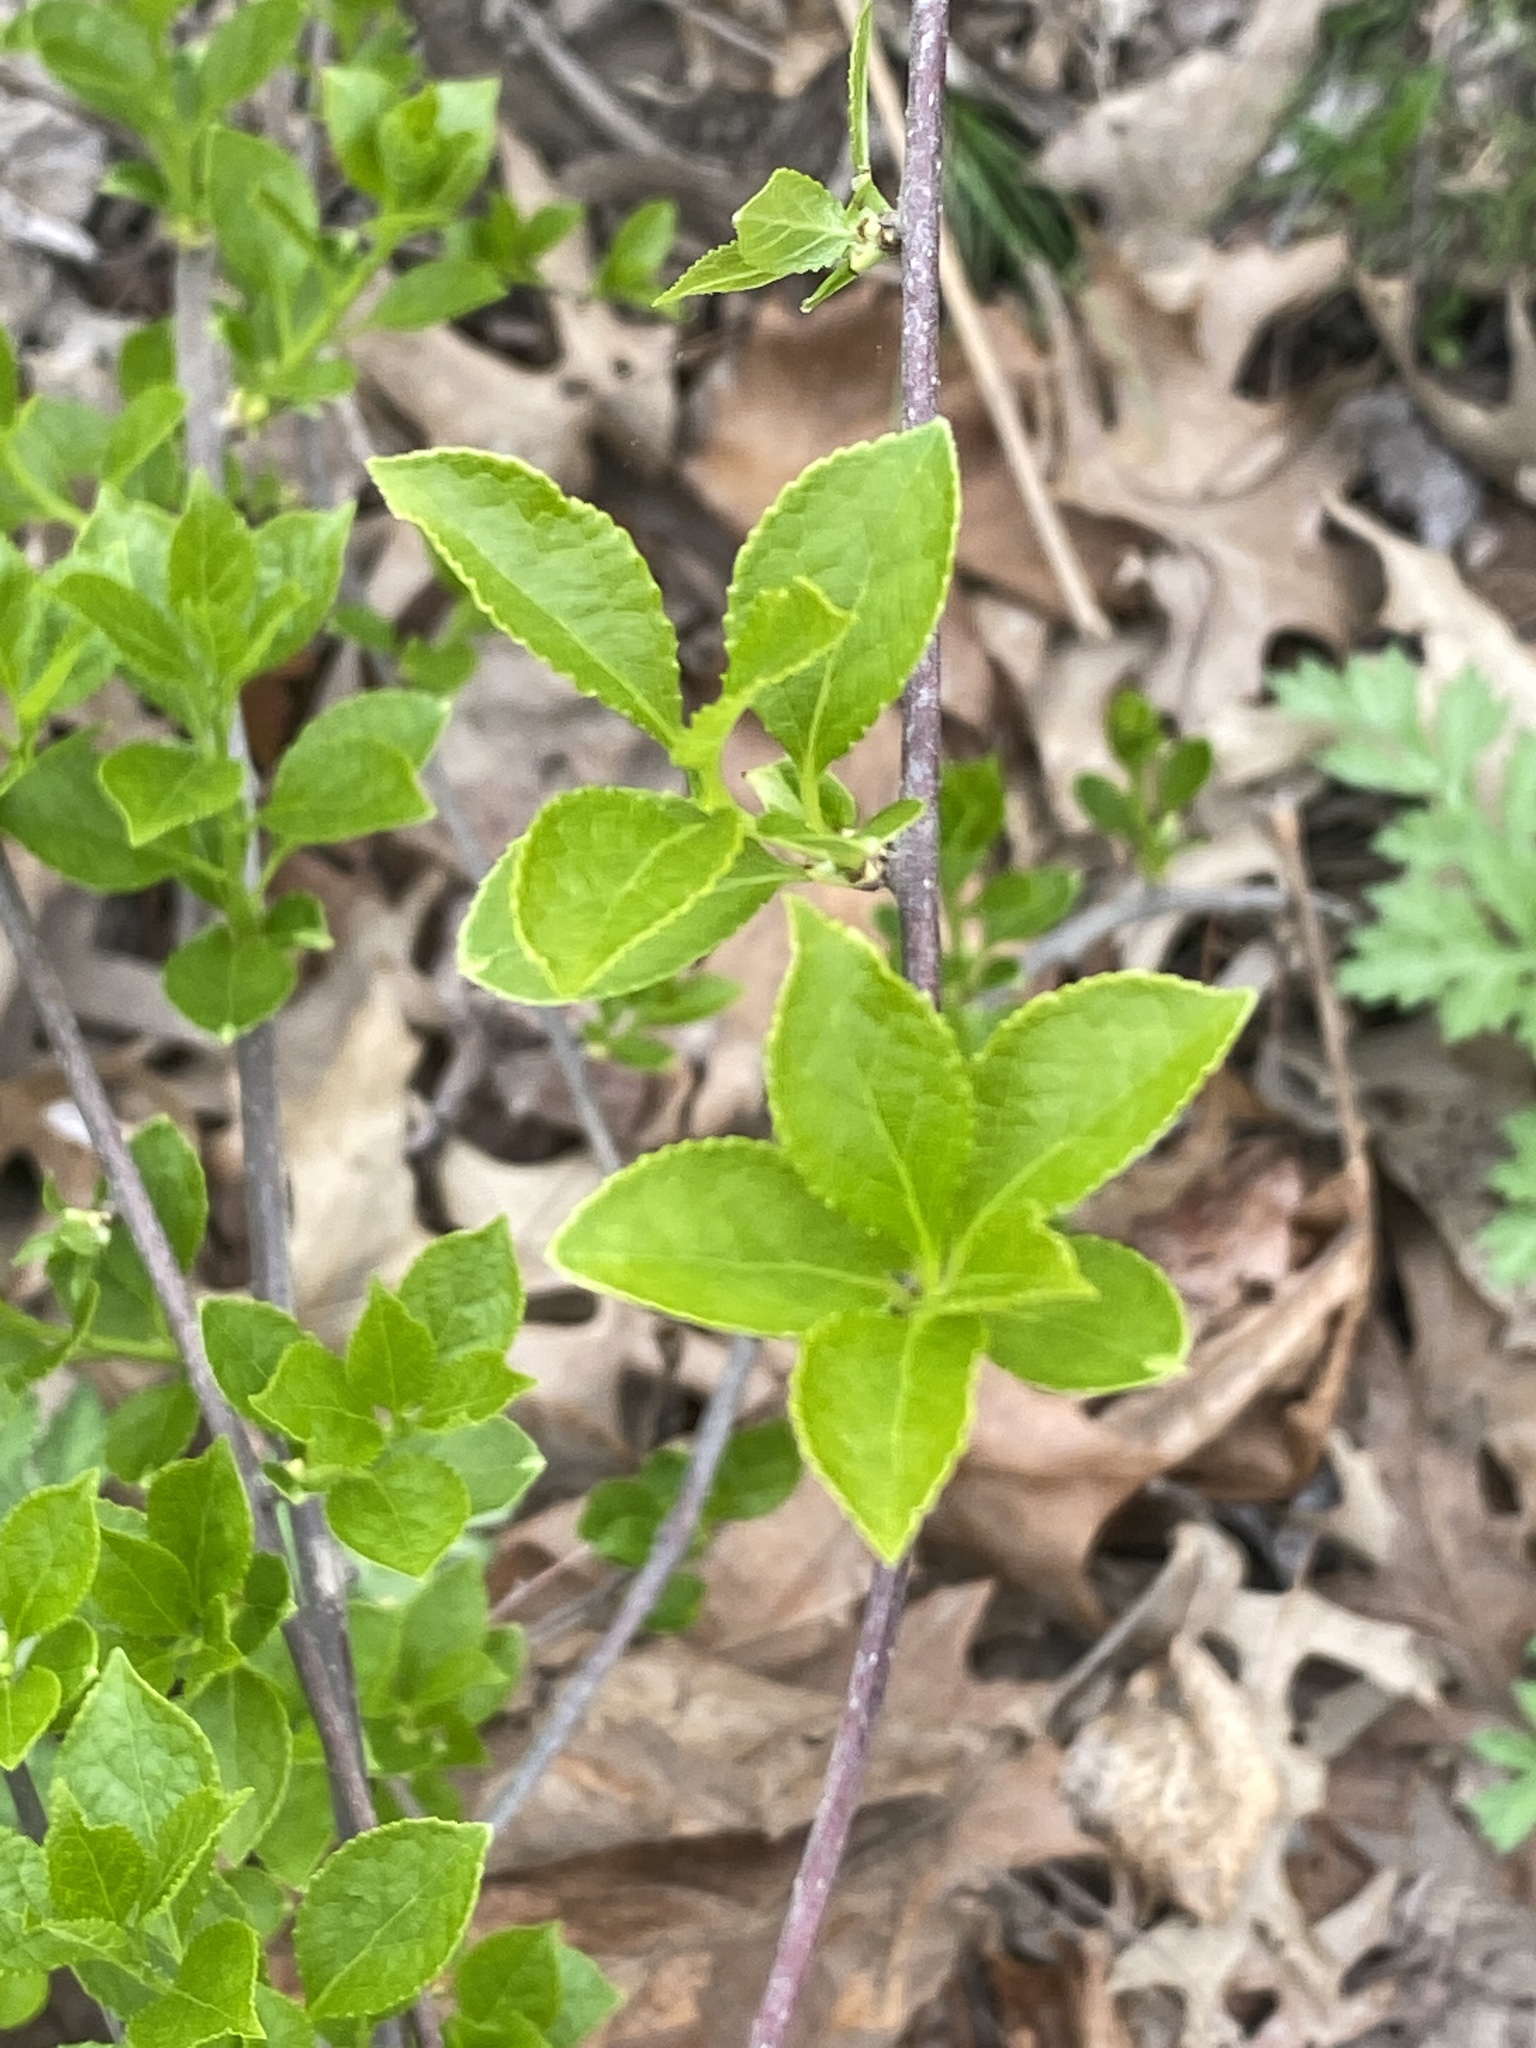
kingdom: Plantae
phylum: Tracheophyta
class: Magnoliopsida
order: Celastrales
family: Celastraceae
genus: Celastrus
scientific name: Celastrus orbiculatus
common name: Oriental bittersweet
